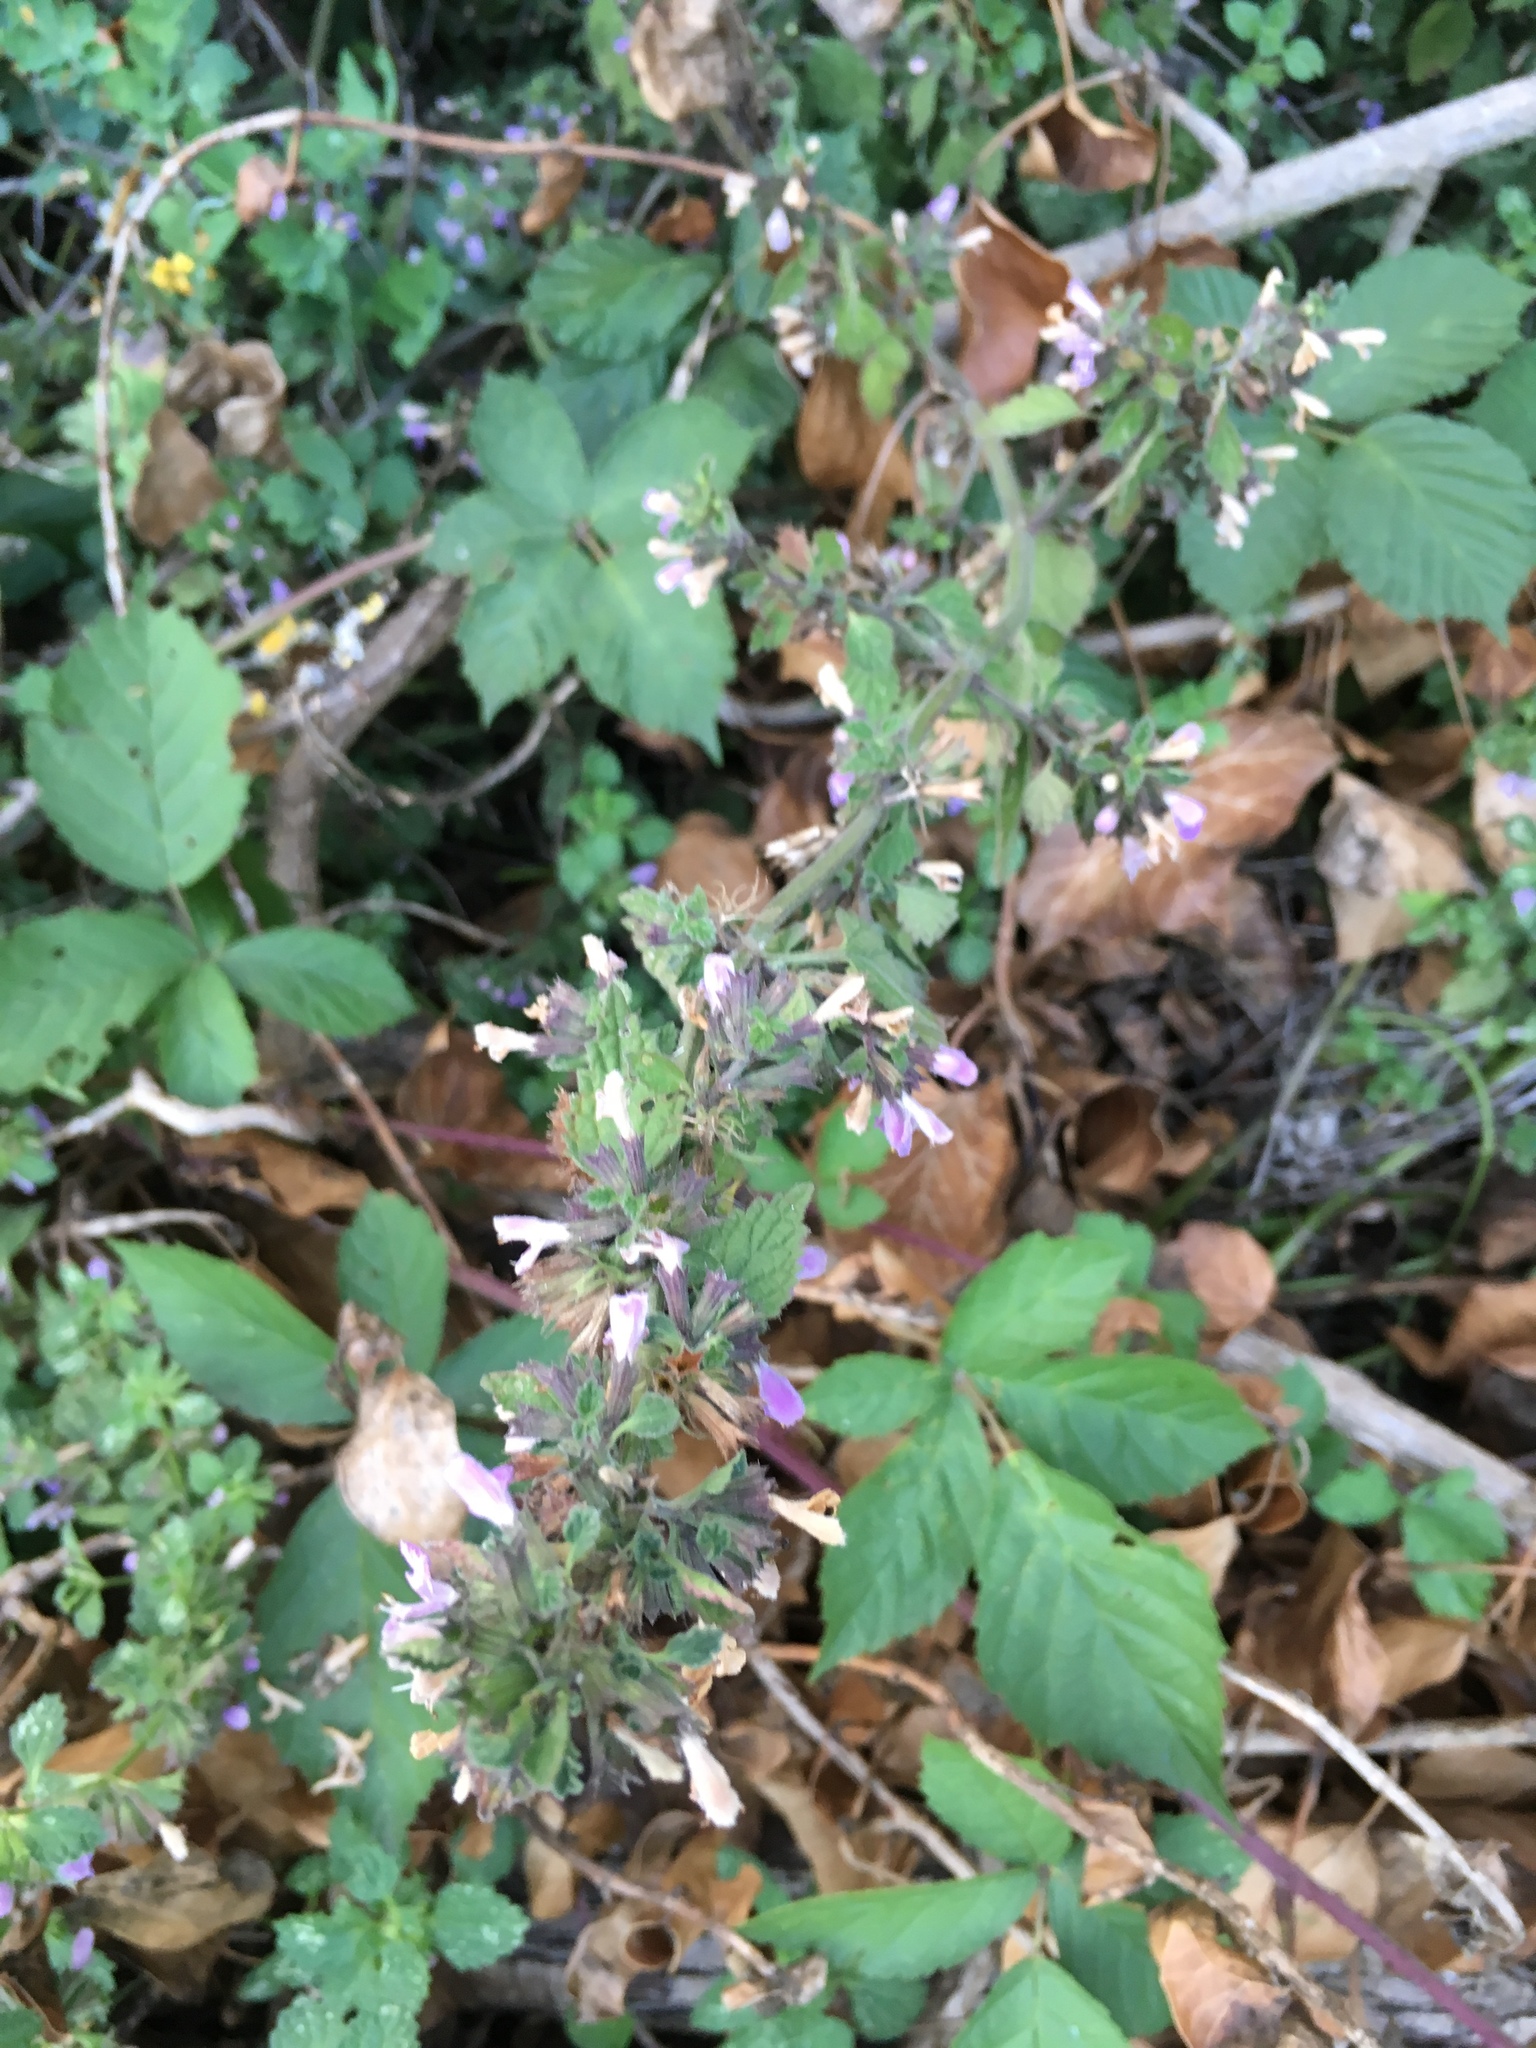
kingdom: Plantae
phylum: Tracheophyta
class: Magnoliopsida
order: Lamiales
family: Lamiaceae
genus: Ballota
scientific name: Ballota nigra
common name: Black horehound
